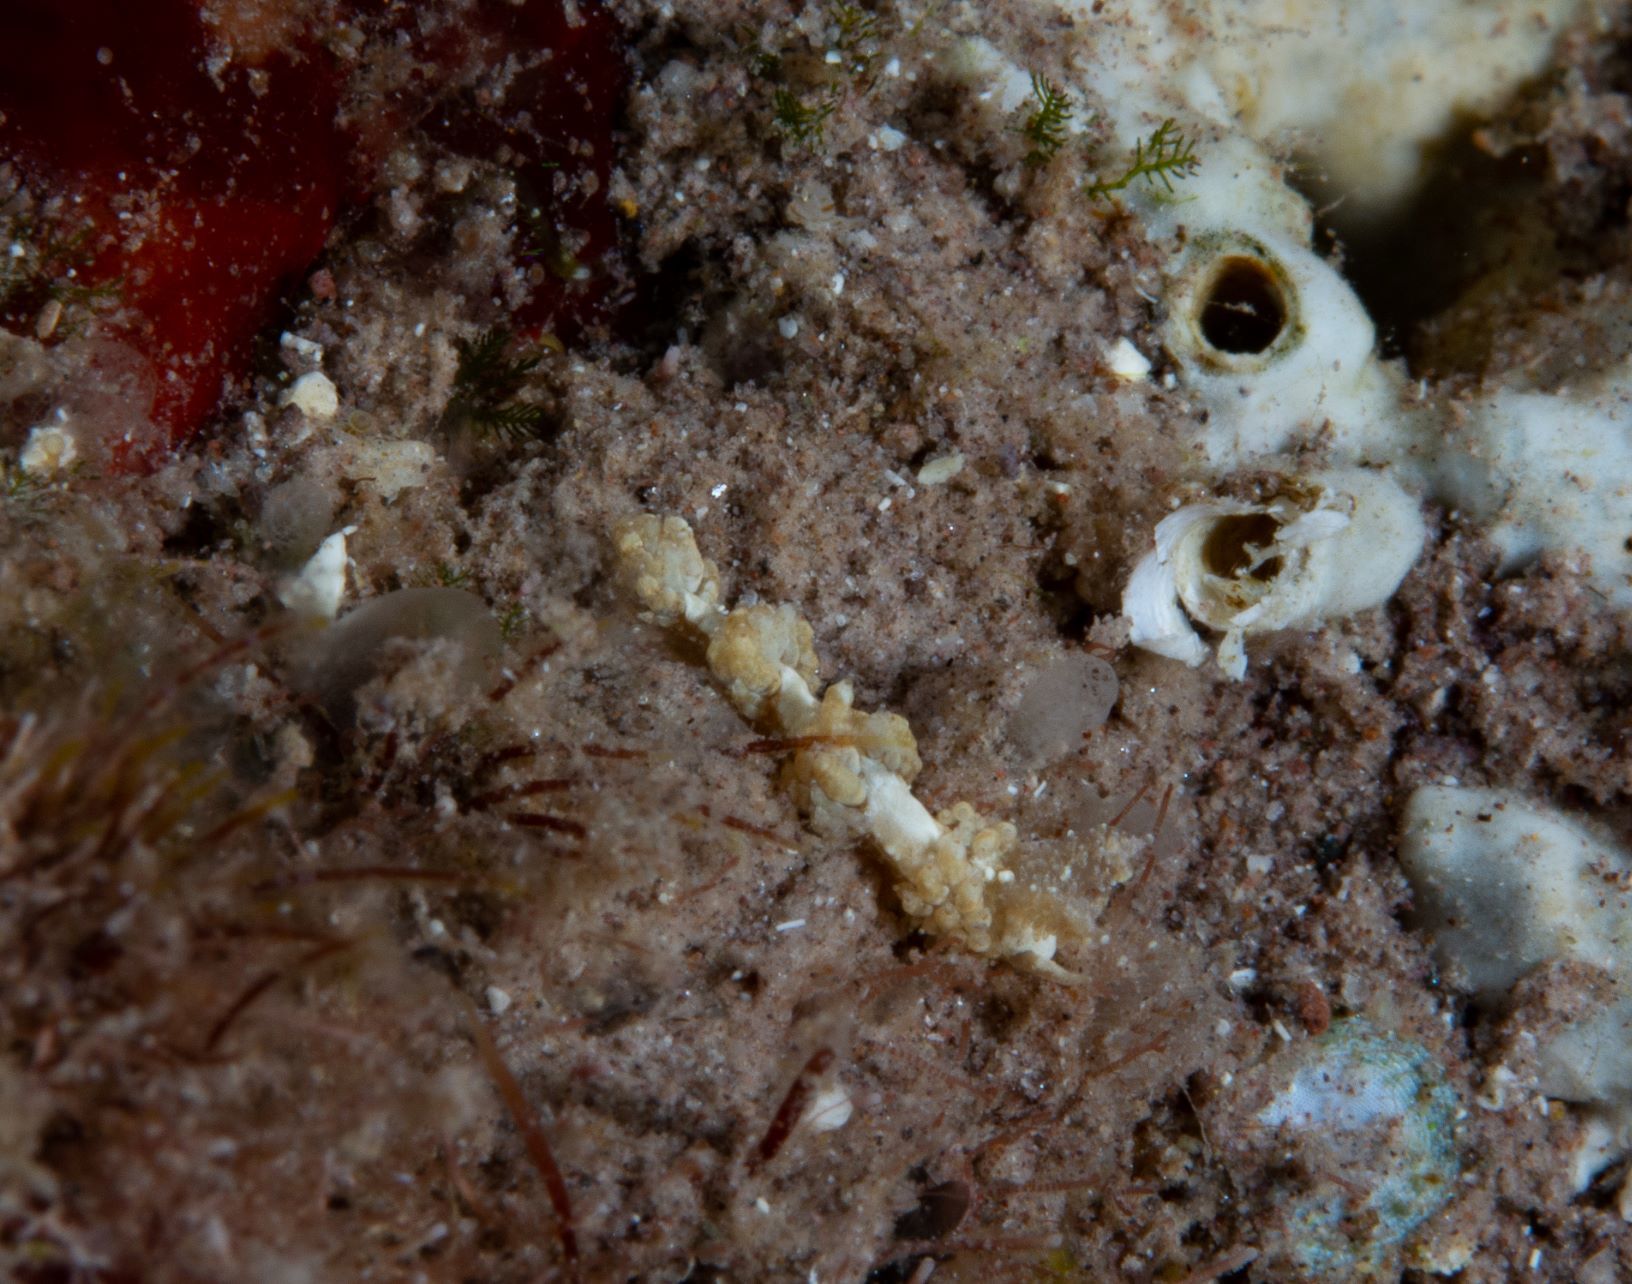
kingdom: Animalia
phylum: Mollusca
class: Gastropoda
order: Nudibranchia
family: Aeolidiidae
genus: Berghia
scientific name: Berghia creutzbergi
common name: Creutzberg's spurilla
